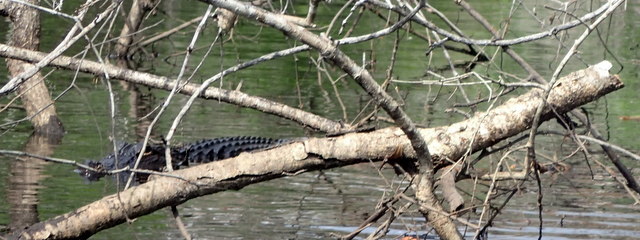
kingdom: Animalia
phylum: Chordata
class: Crocodylia
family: Alligatoridae
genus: Alligator
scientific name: Alligator mississippiensis
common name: American alligator
